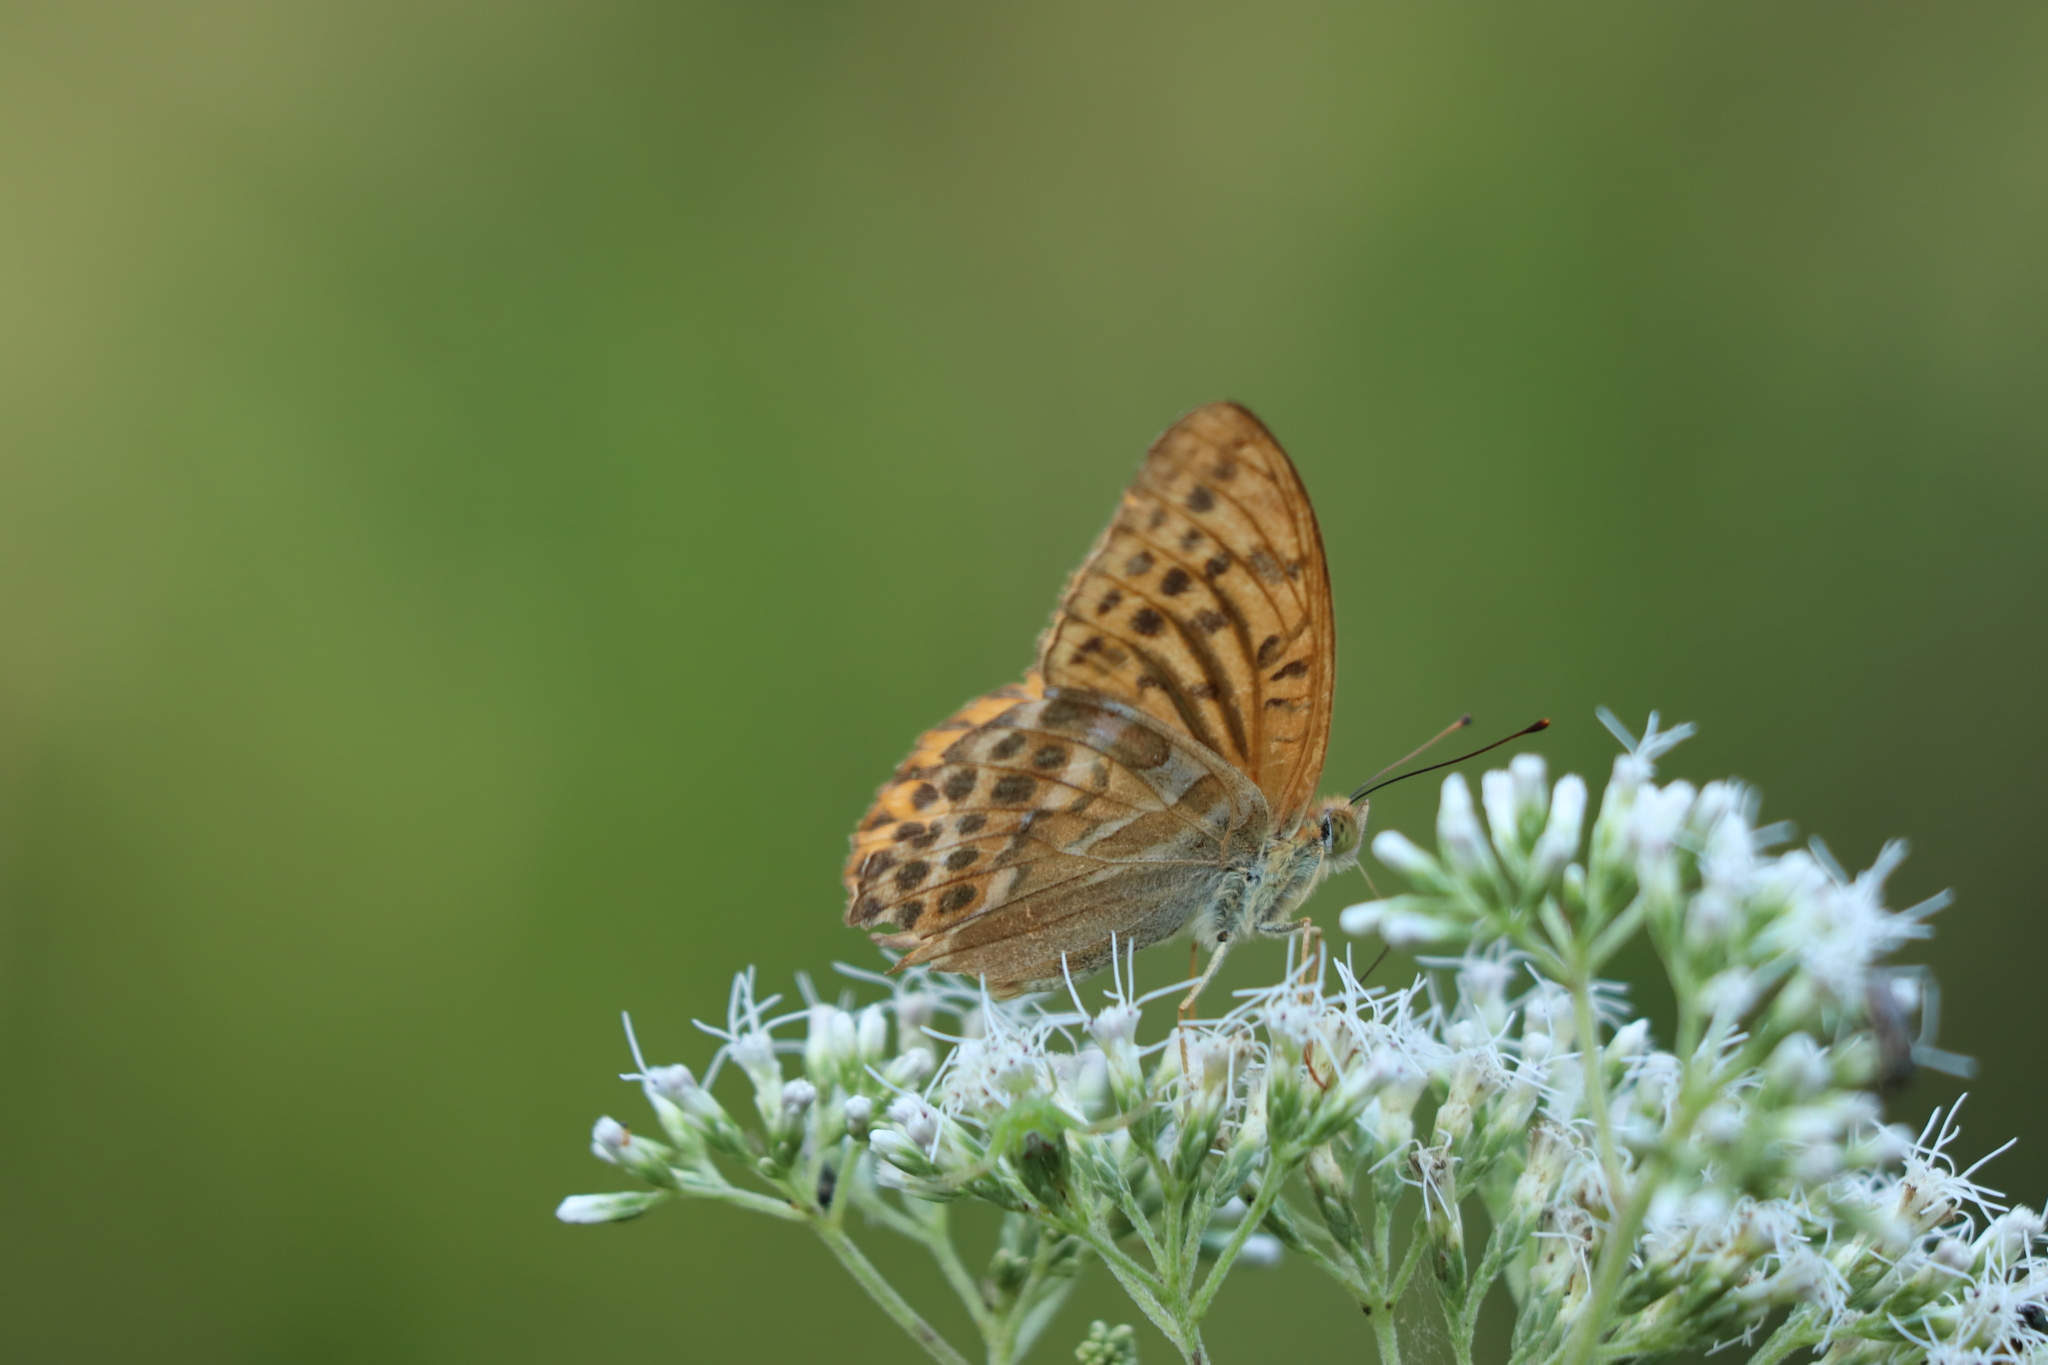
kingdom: Animalia
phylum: Arthropoda
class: Insecta
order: Lepidoptera
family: Nymphalidae
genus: Argynnis
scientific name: Argynnis paphia
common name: Silver-washed fritillary
